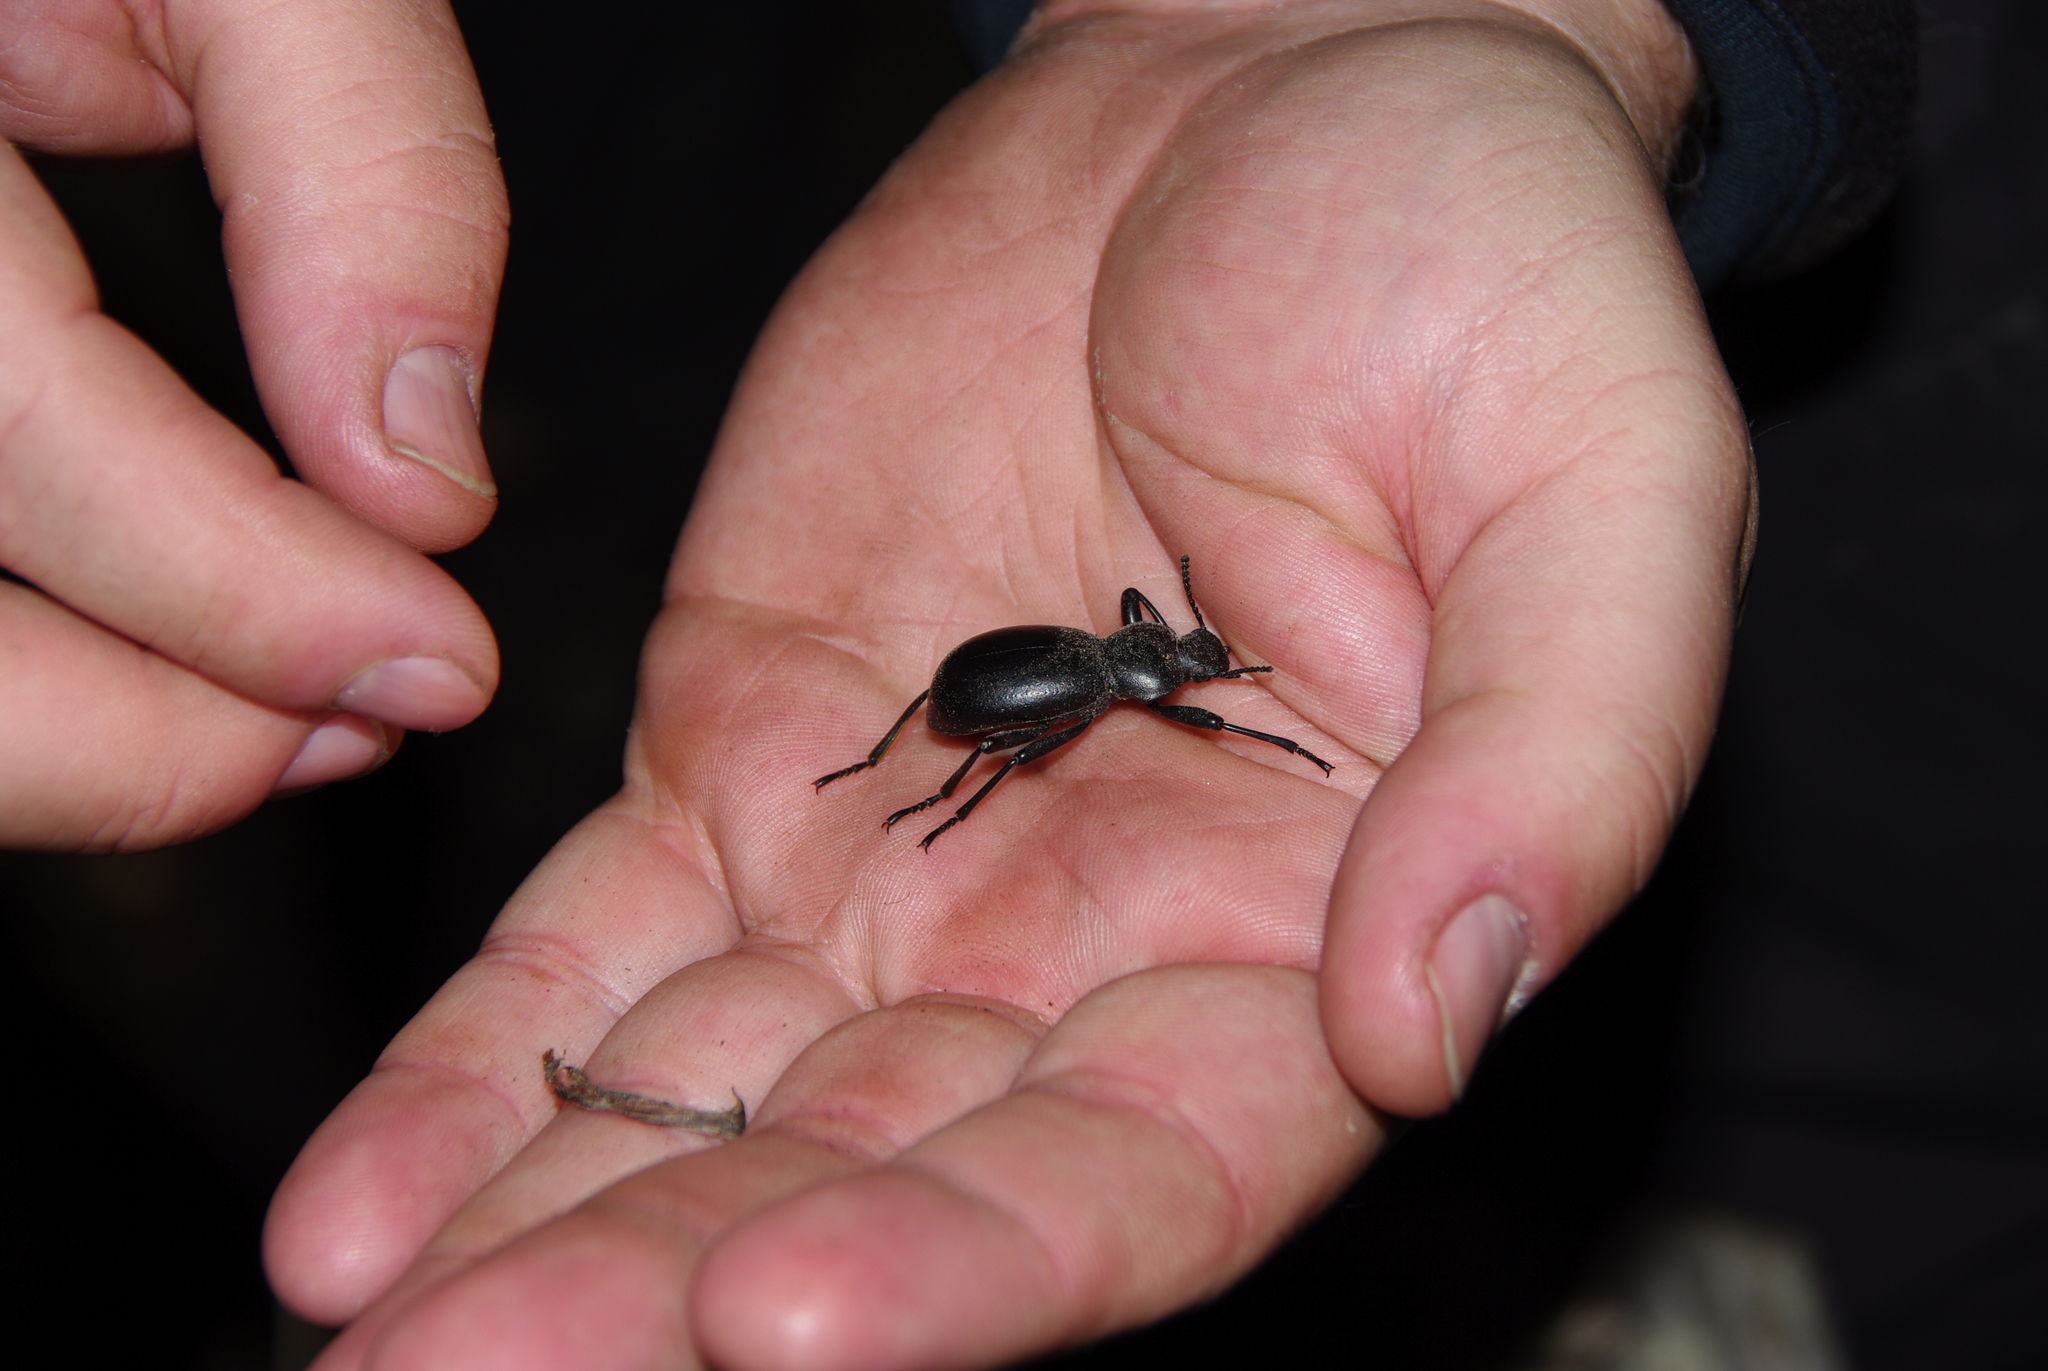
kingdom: Animalia
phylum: Arthropoda
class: Insecta
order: Coleoptera
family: Tenebrionidae
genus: Coelocnemis
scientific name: Coelocnemis dilaticollis
